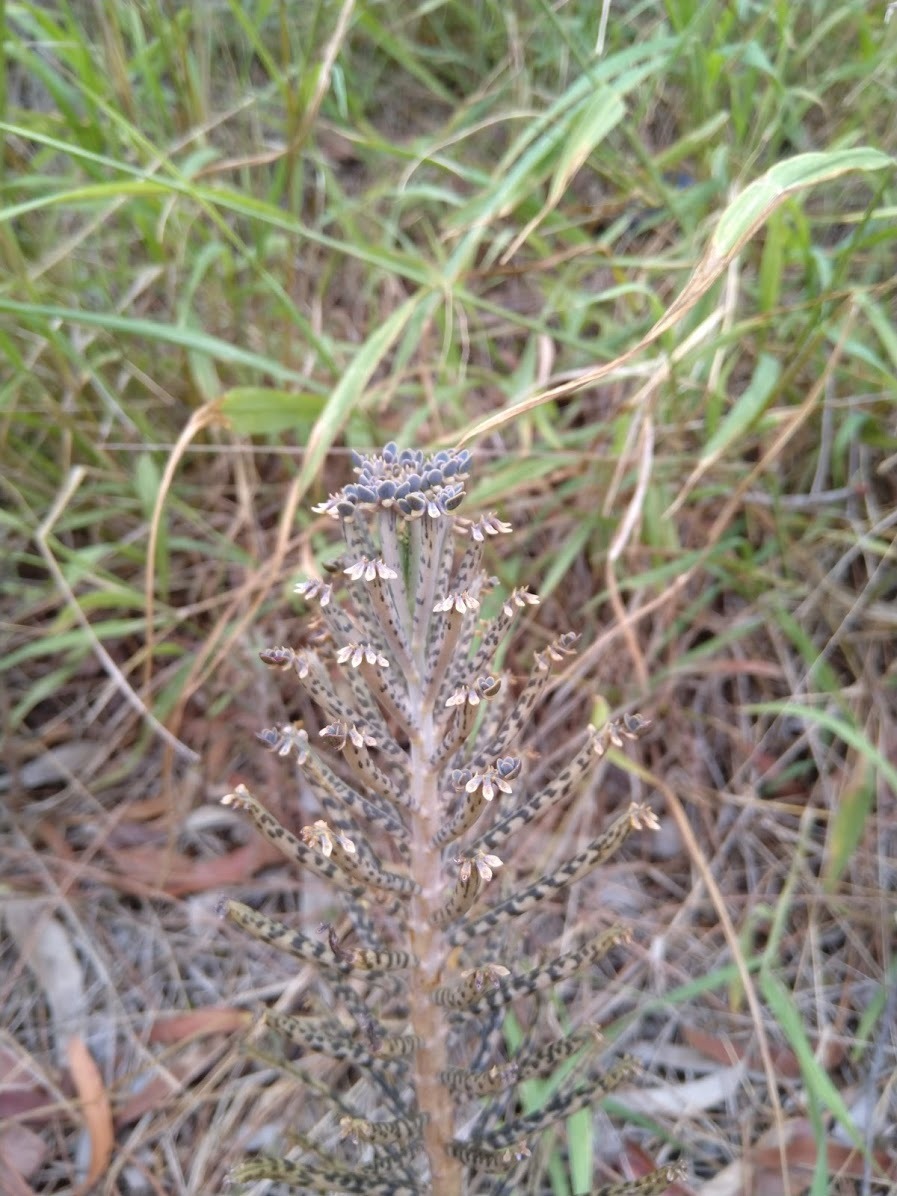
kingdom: Plantae
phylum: Tracheophyta
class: Magnoliopsida
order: Saxifragales
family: Crassulaceae
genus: Kalanchoe
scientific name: Kalanchoe delagoensis
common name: Chandelier plant
